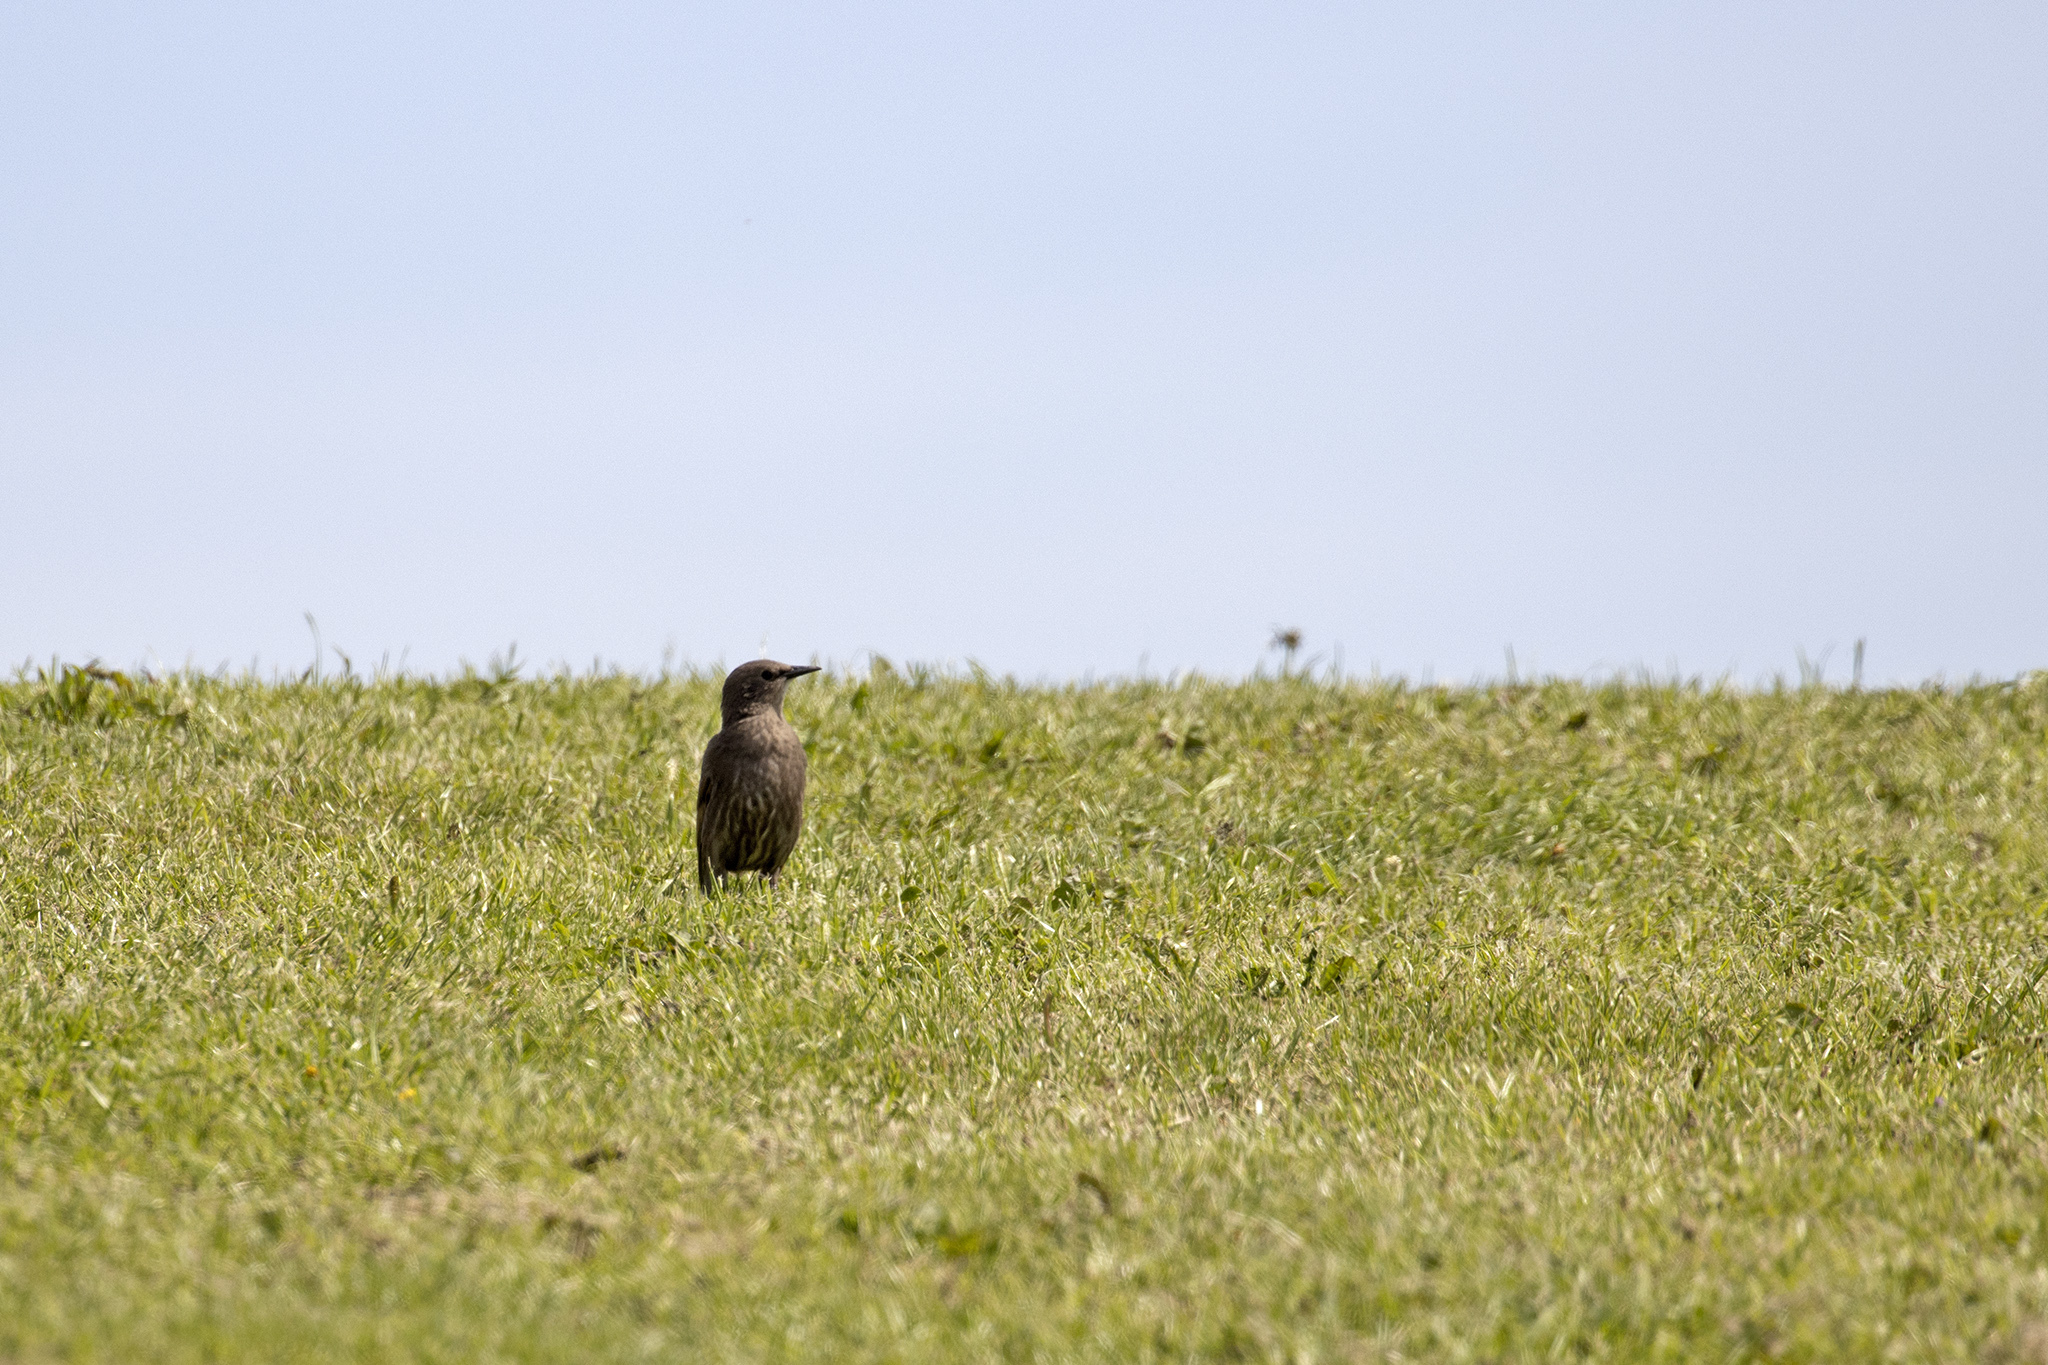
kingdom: Animalia
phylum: Chordata
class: Aves
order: Passeriformes
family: Sturnidae
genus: Sturnus
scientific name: Sturnus vulgaris
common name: Common starling
